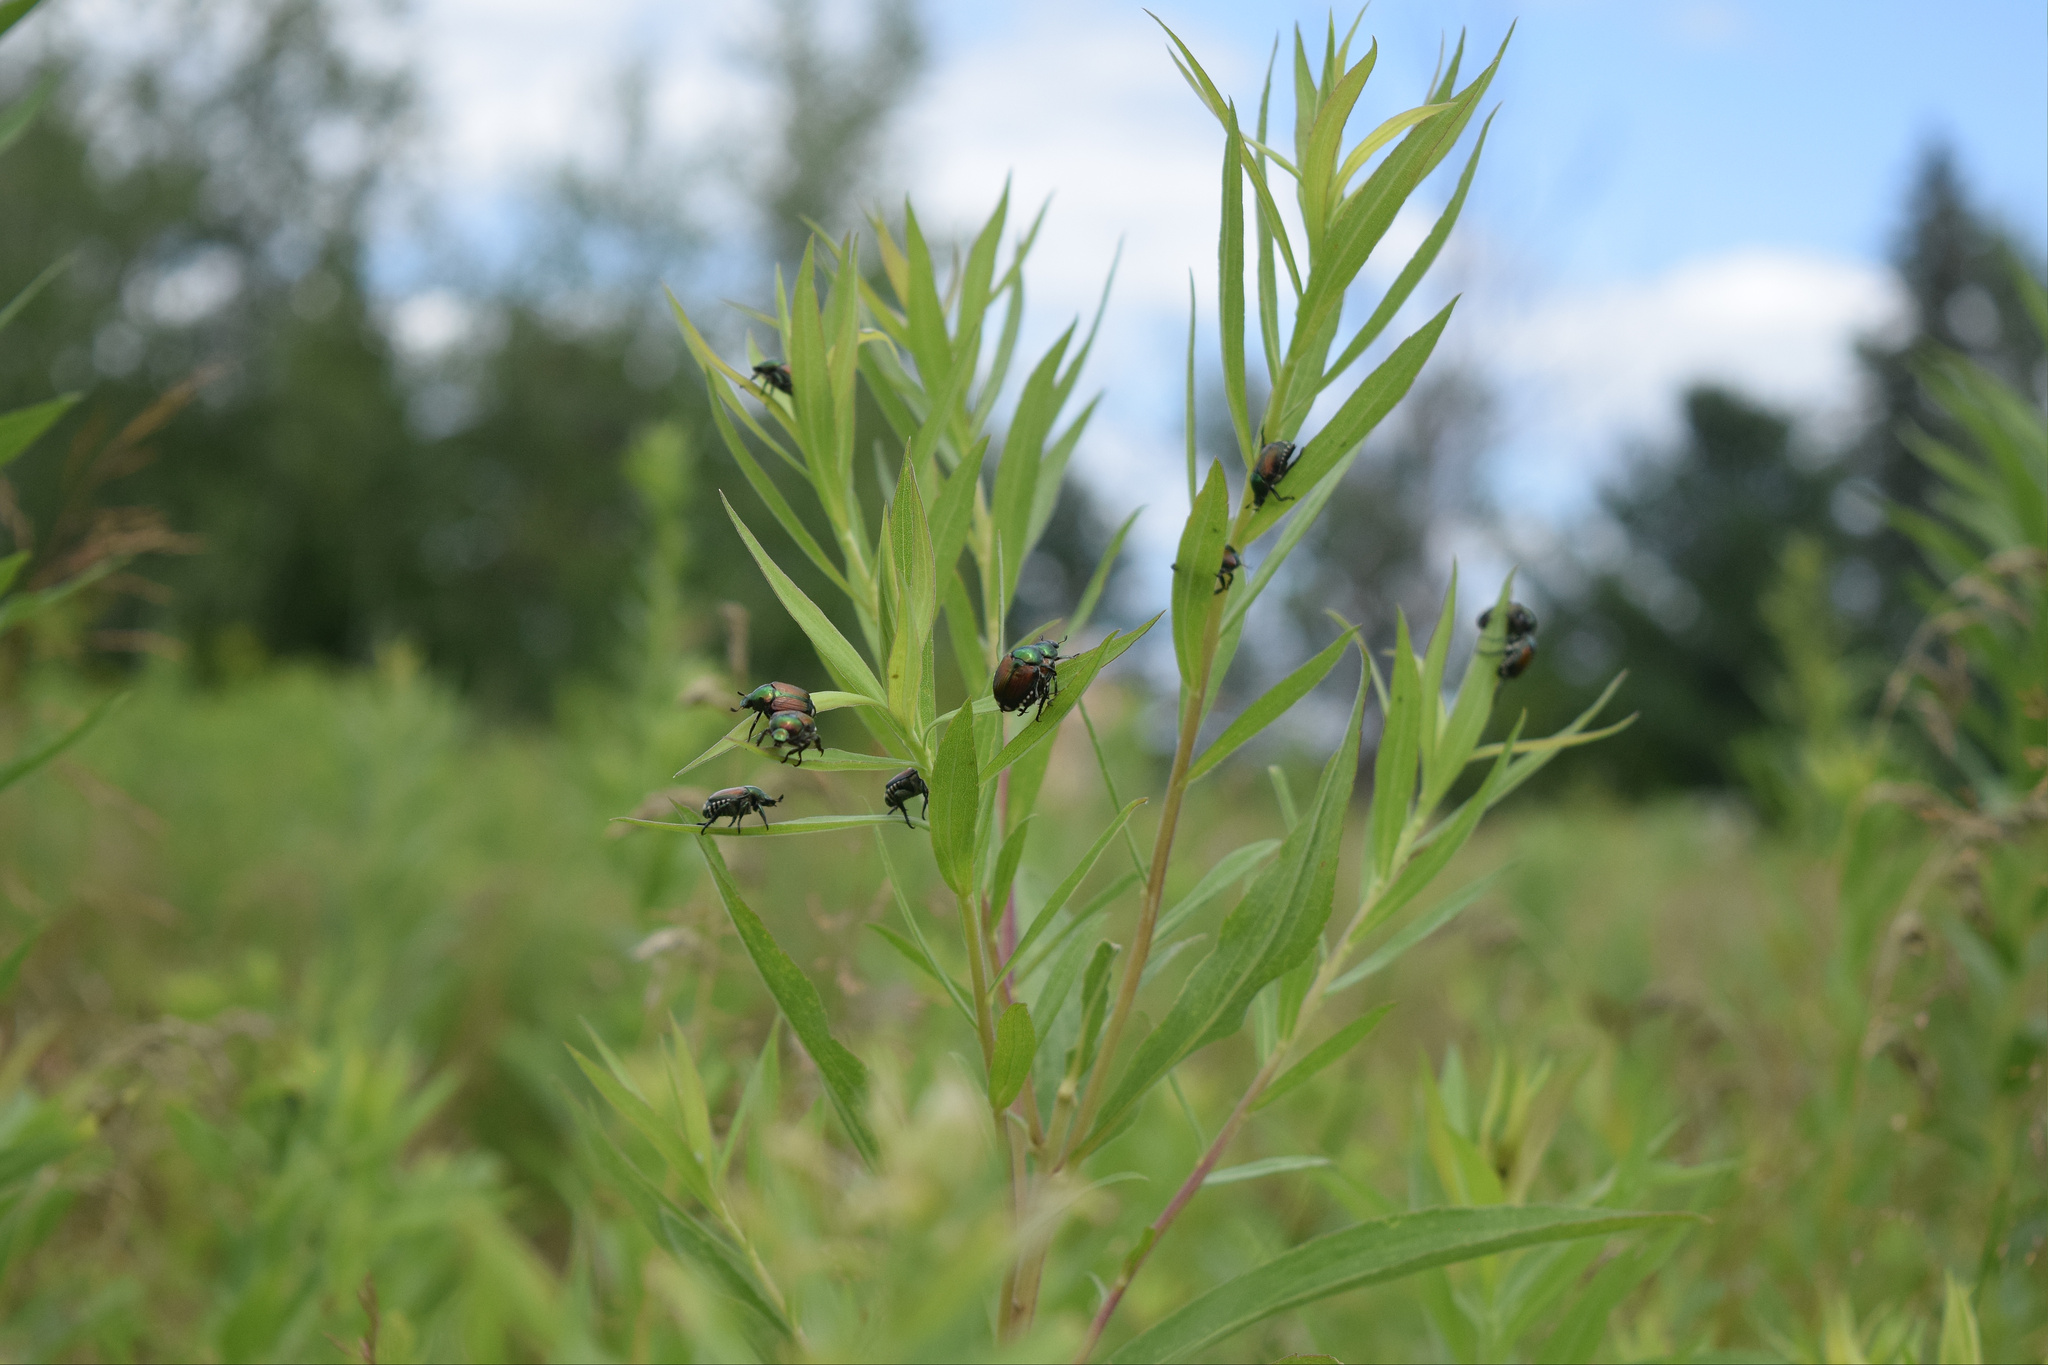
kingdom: Animalia
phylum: Arthropoda
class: Insecta
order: Coleoptera
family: Scarabaeidae
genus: Popillia
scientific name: Popillia japonica
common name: Japanese beetle
